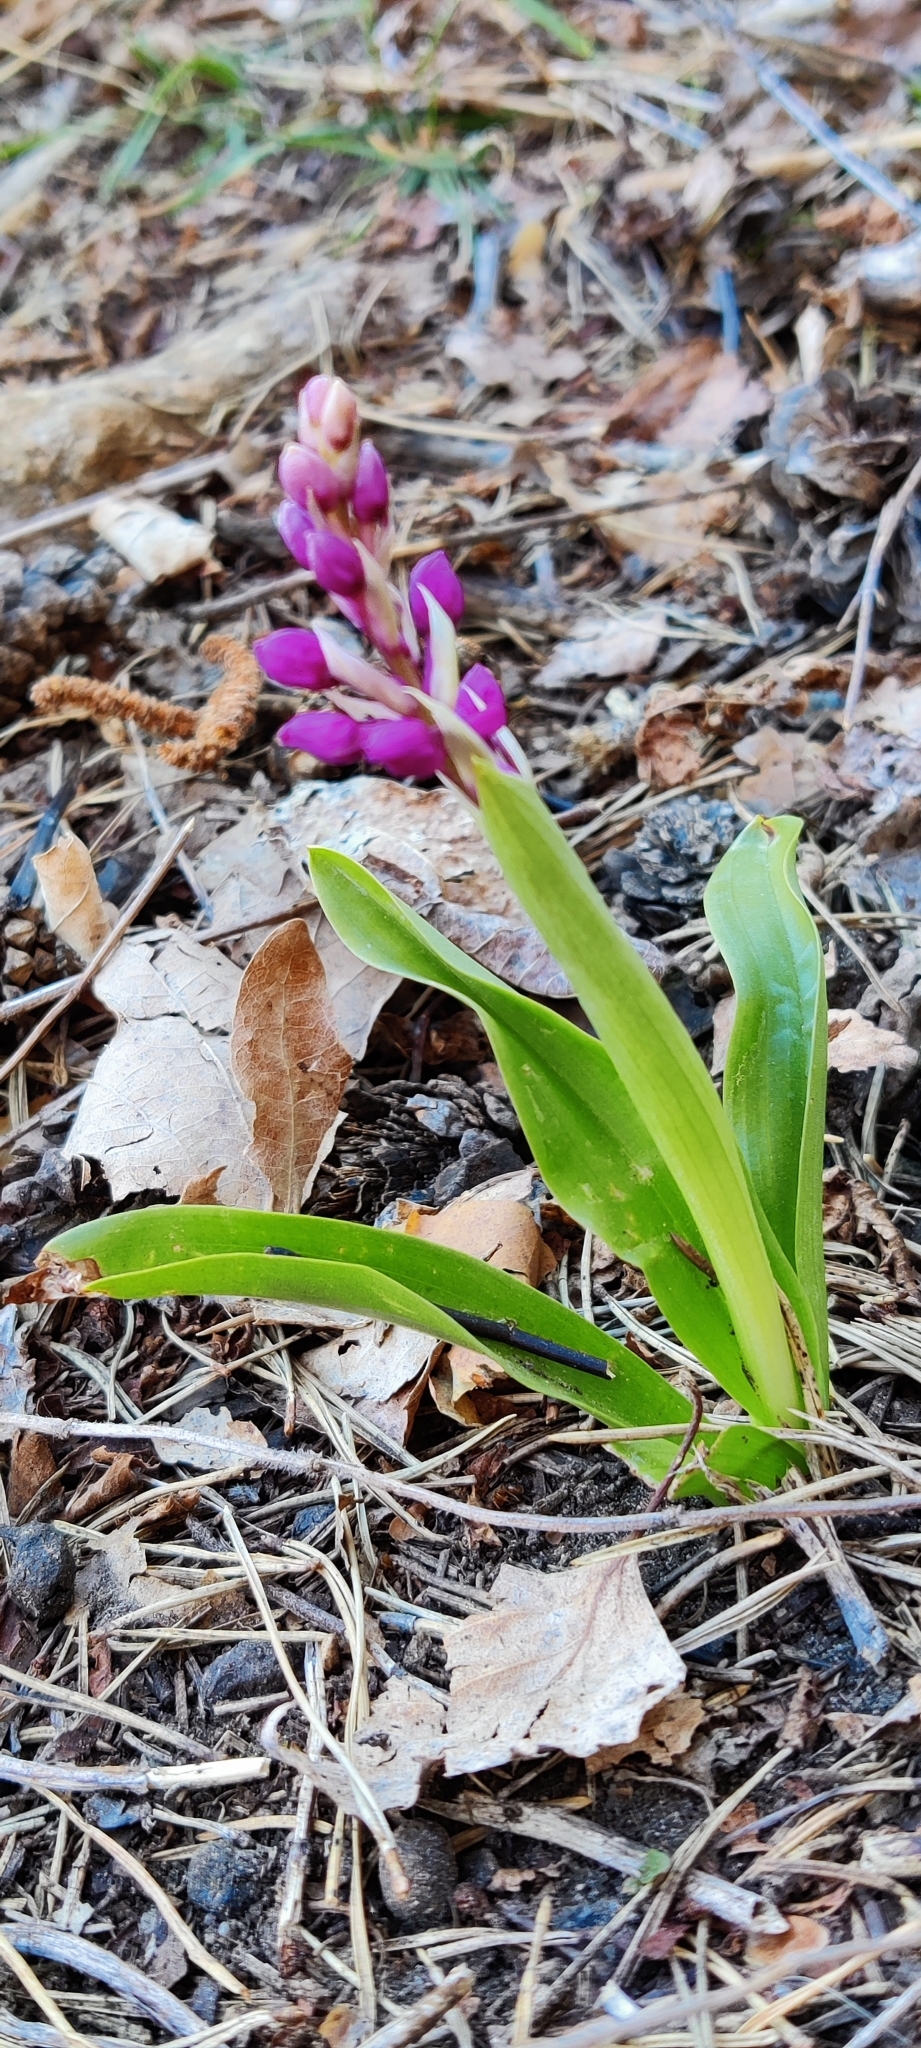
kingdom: Plantae
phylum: Tracheophyta
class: Liliopsida
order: Asparagales
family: Orchidaceae
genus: Orchis
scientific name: Orchis mascula
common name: Early-purple orchid
